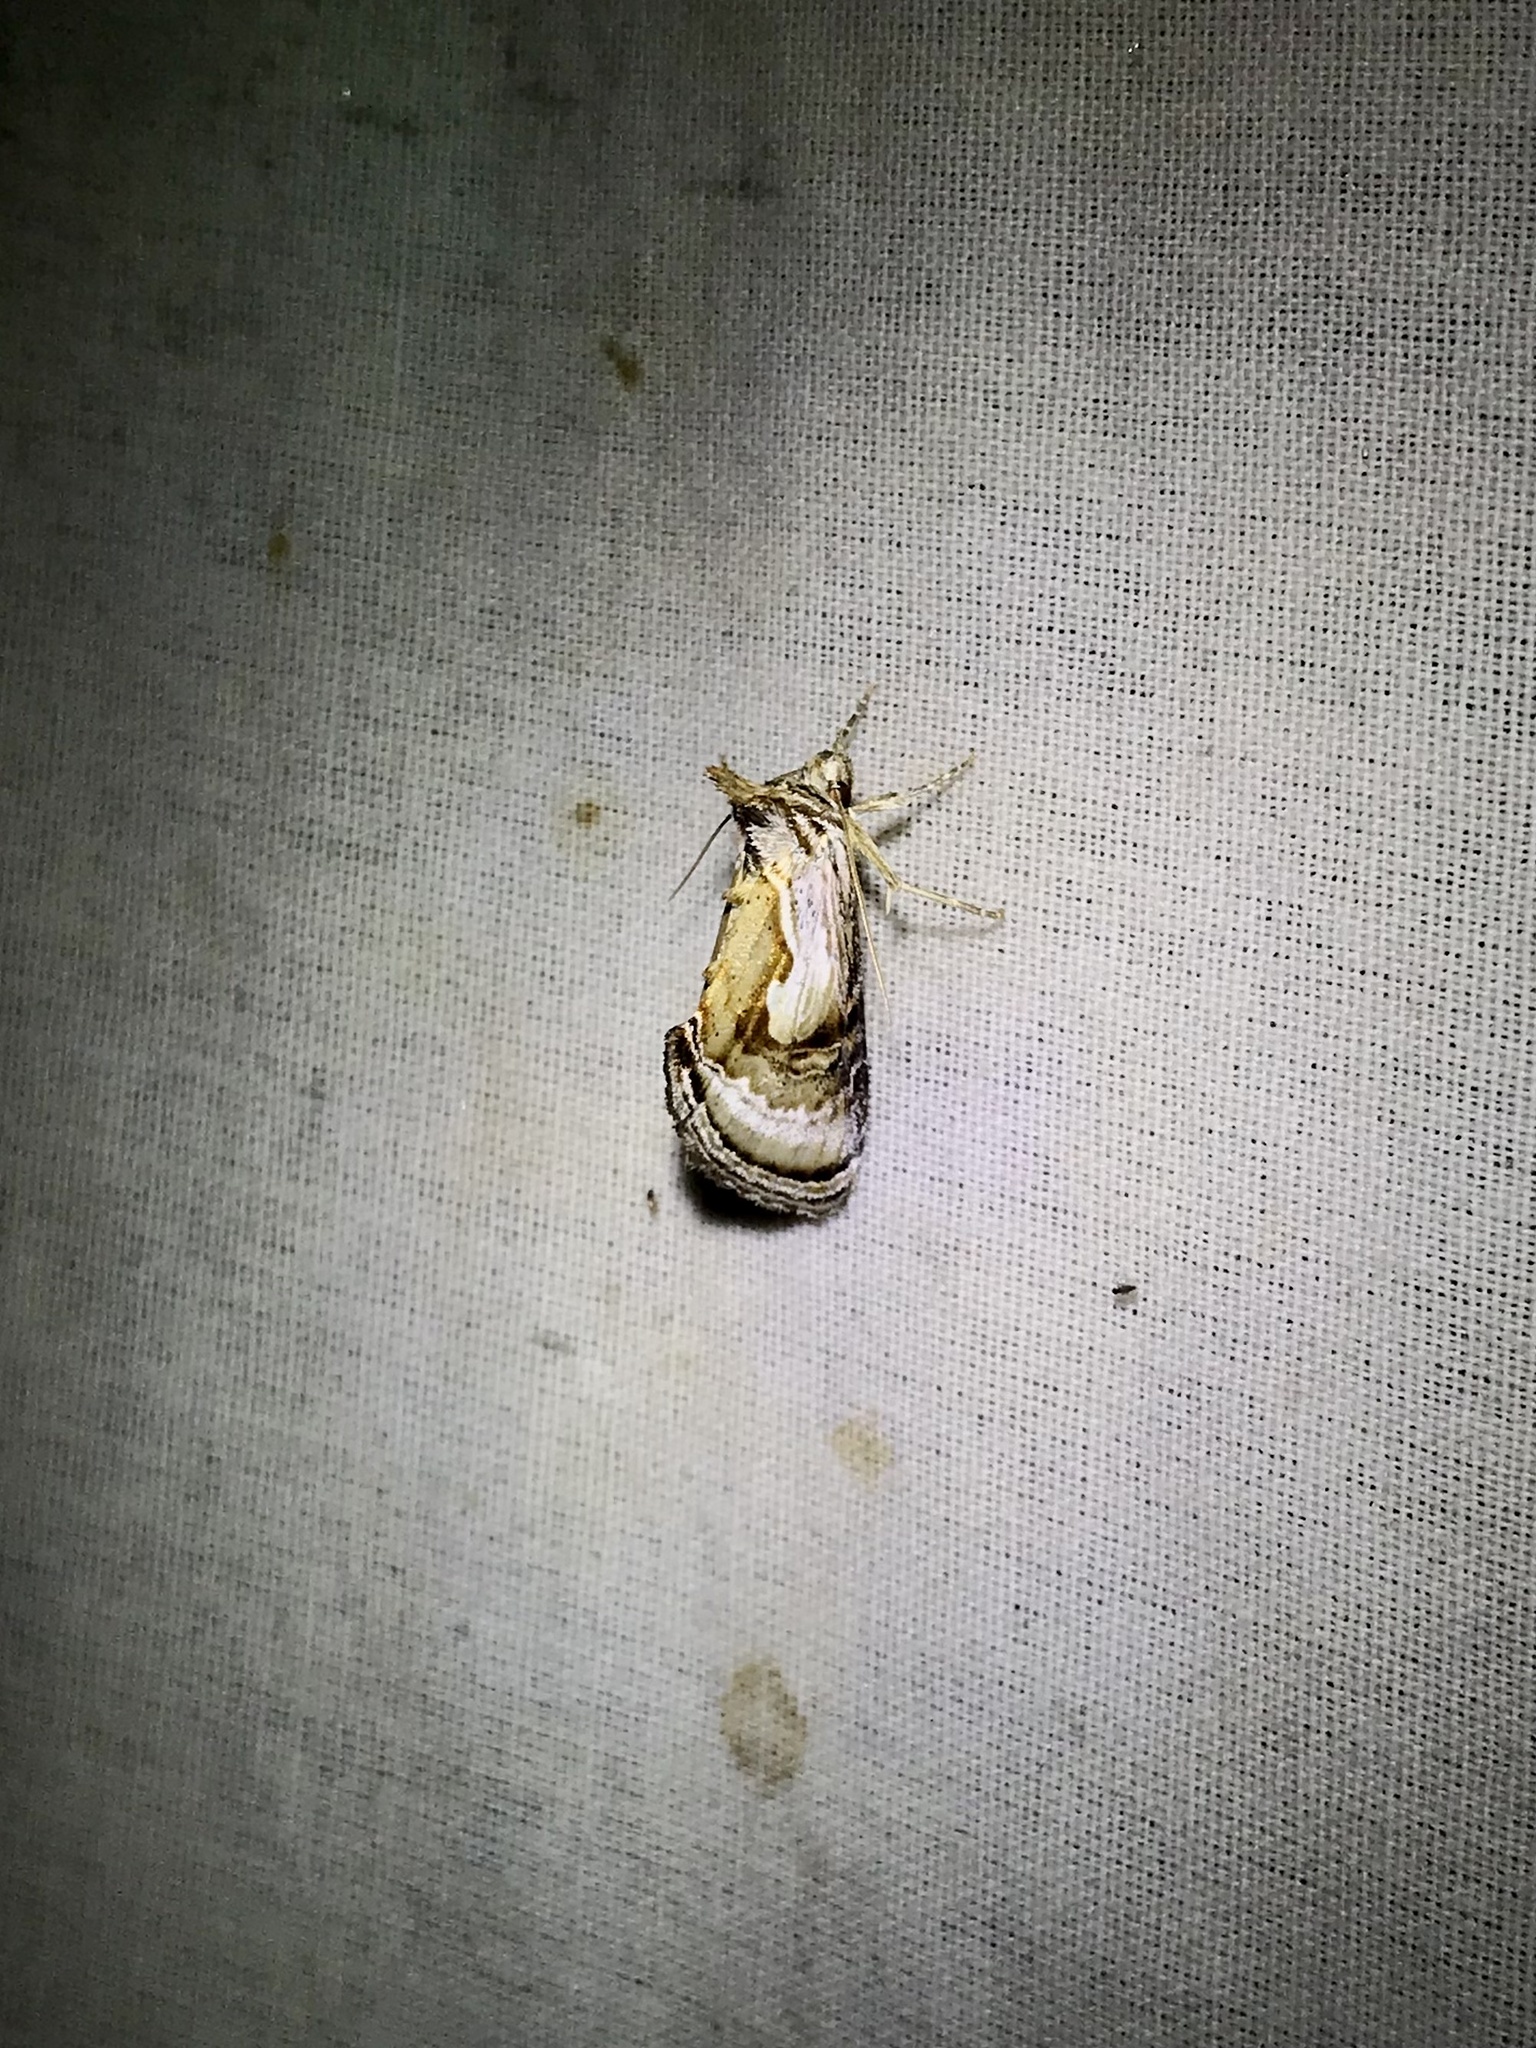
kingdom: Animalia
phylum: Arthropoda
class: Insecta
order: Lepidoptera
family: Noctuidae
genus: Chrysanympha
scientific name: Chrysanympha formosa
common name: Formosa looper moth
